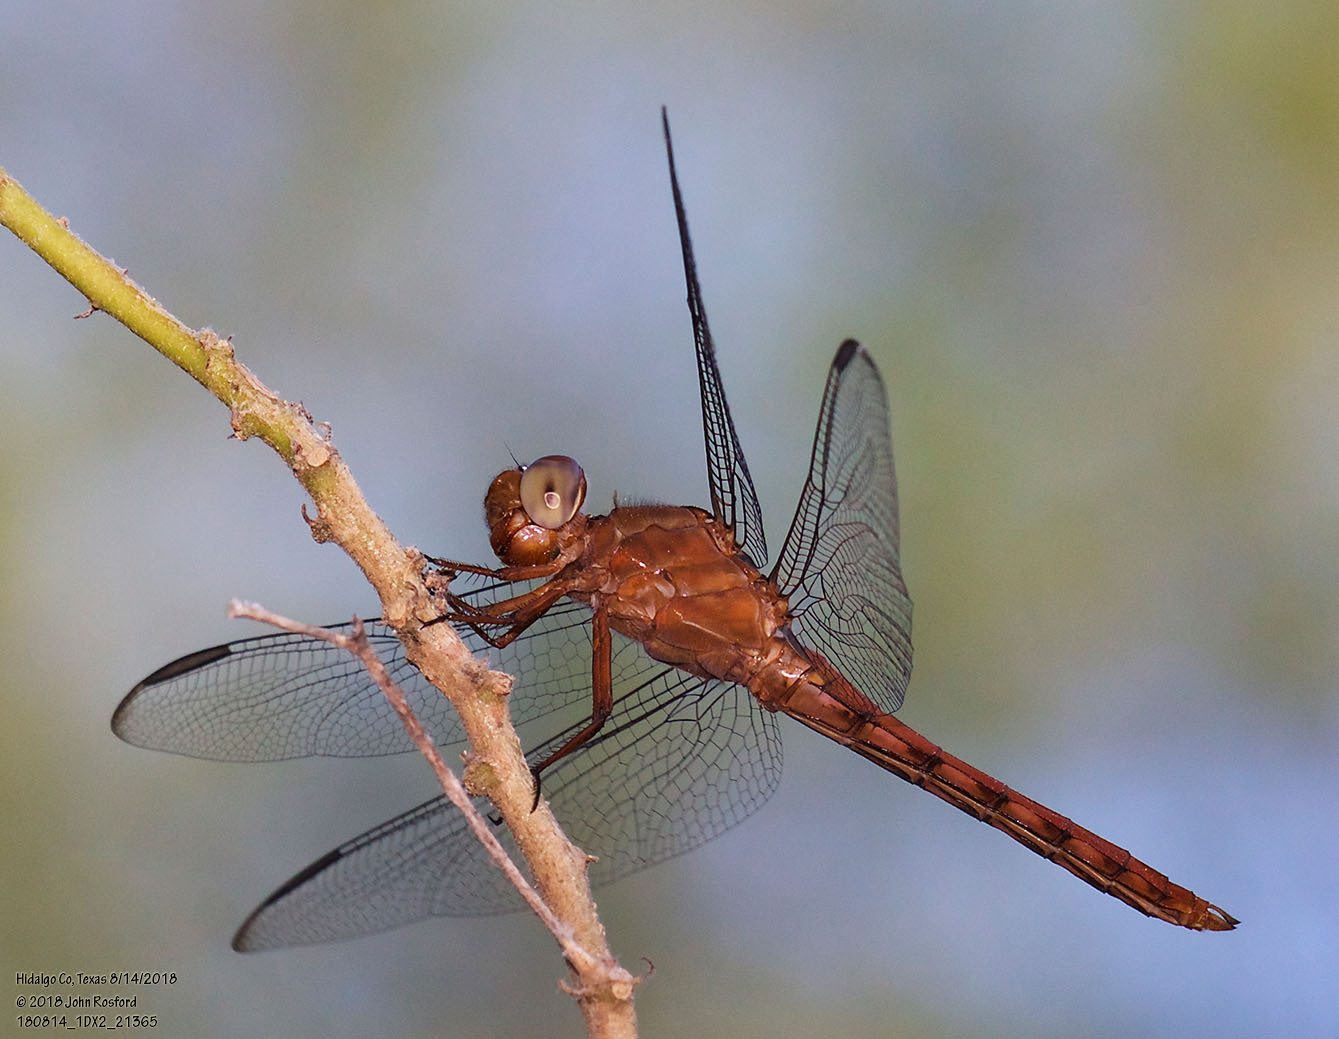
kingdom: Animalia
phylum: Arthropoda
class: Insecta
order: Odonata
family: Libellulidae
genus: Orthemis
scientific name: Orthemis discolor
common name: Carmine skimmer
